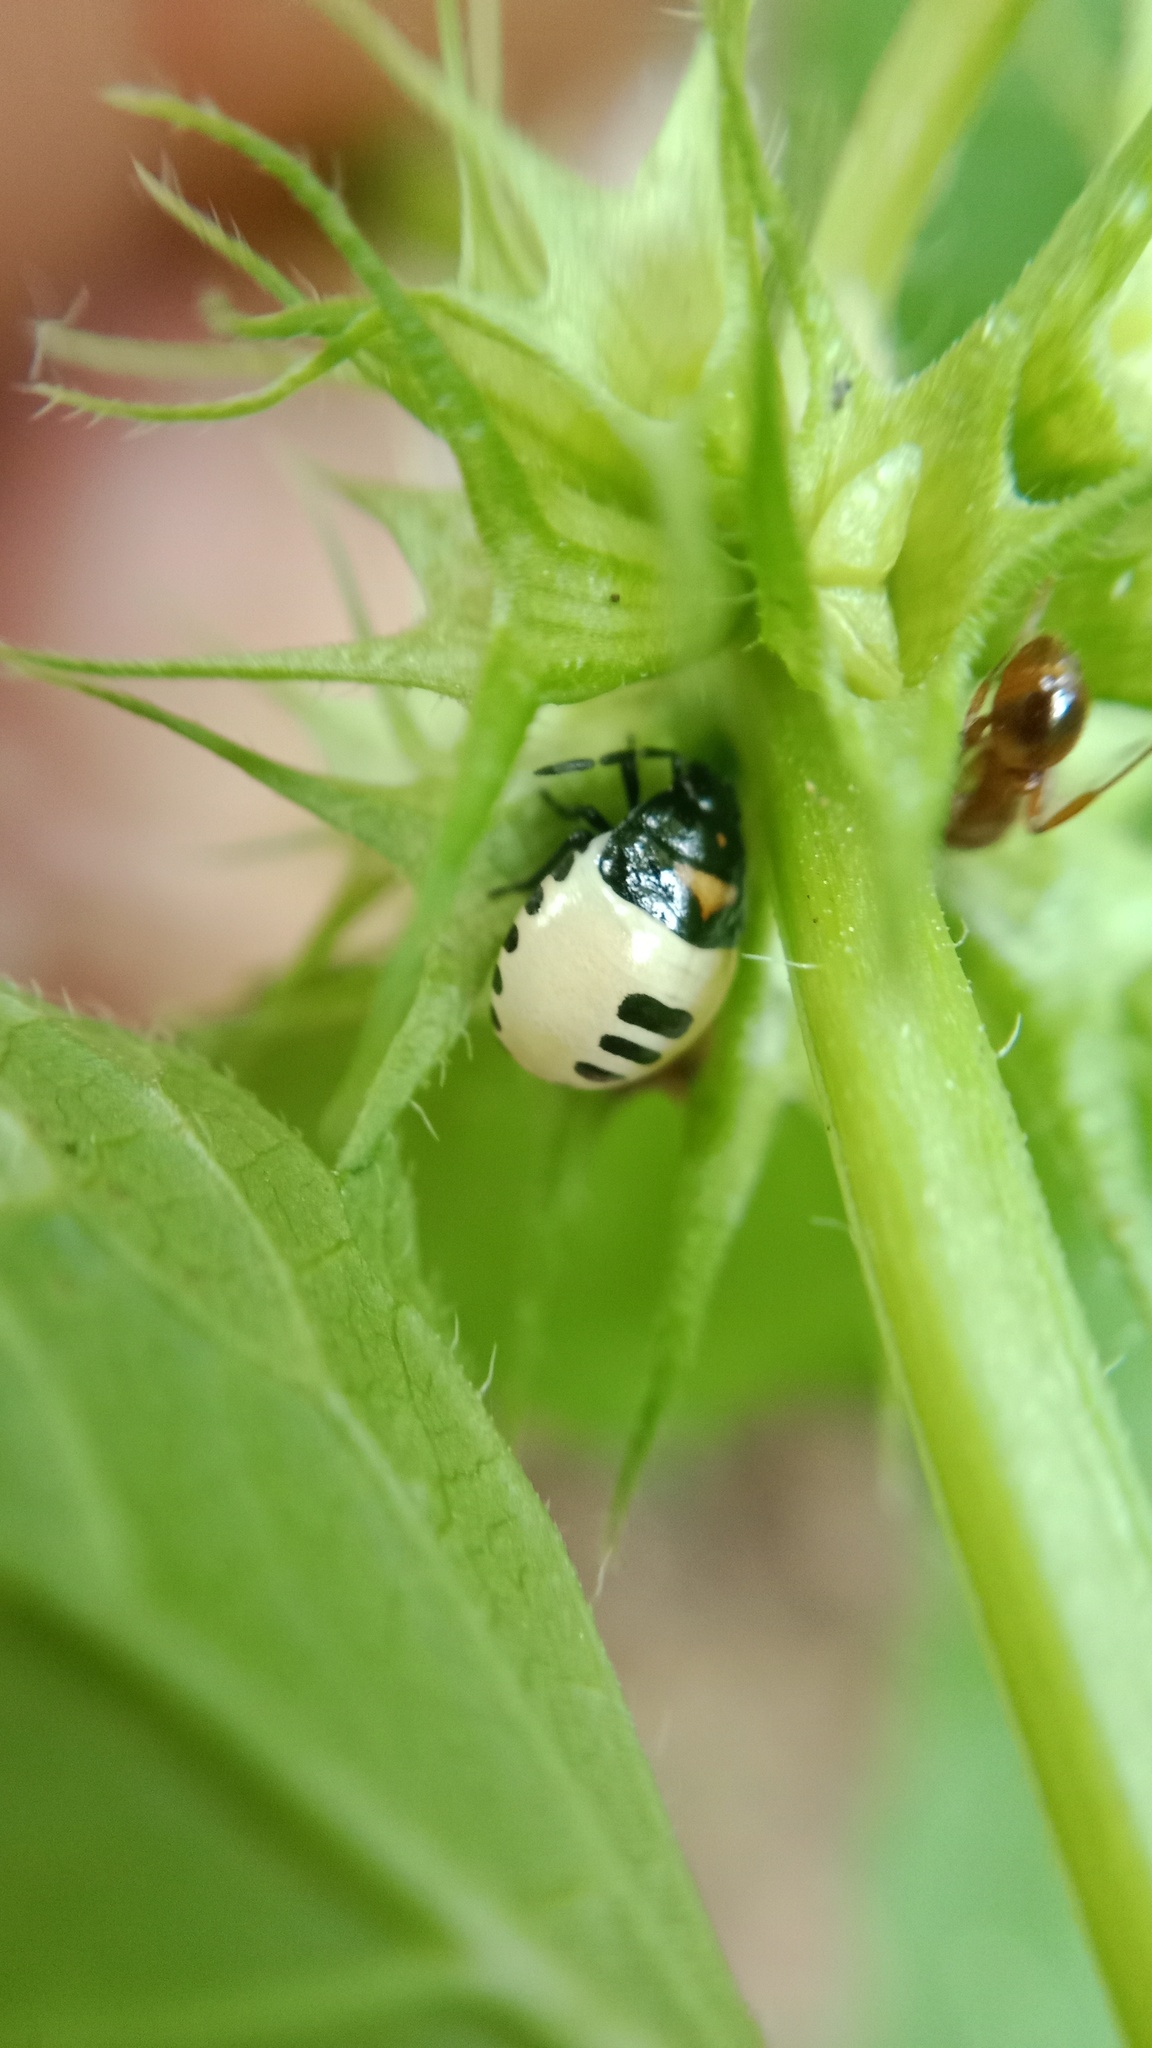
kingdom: Animalia
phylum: Arthropoda
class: Insecta
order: Hemiptera
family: Cydnidae
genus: Tritomegas
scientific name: Tritomegas bicolor
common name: Pied shieldbug
